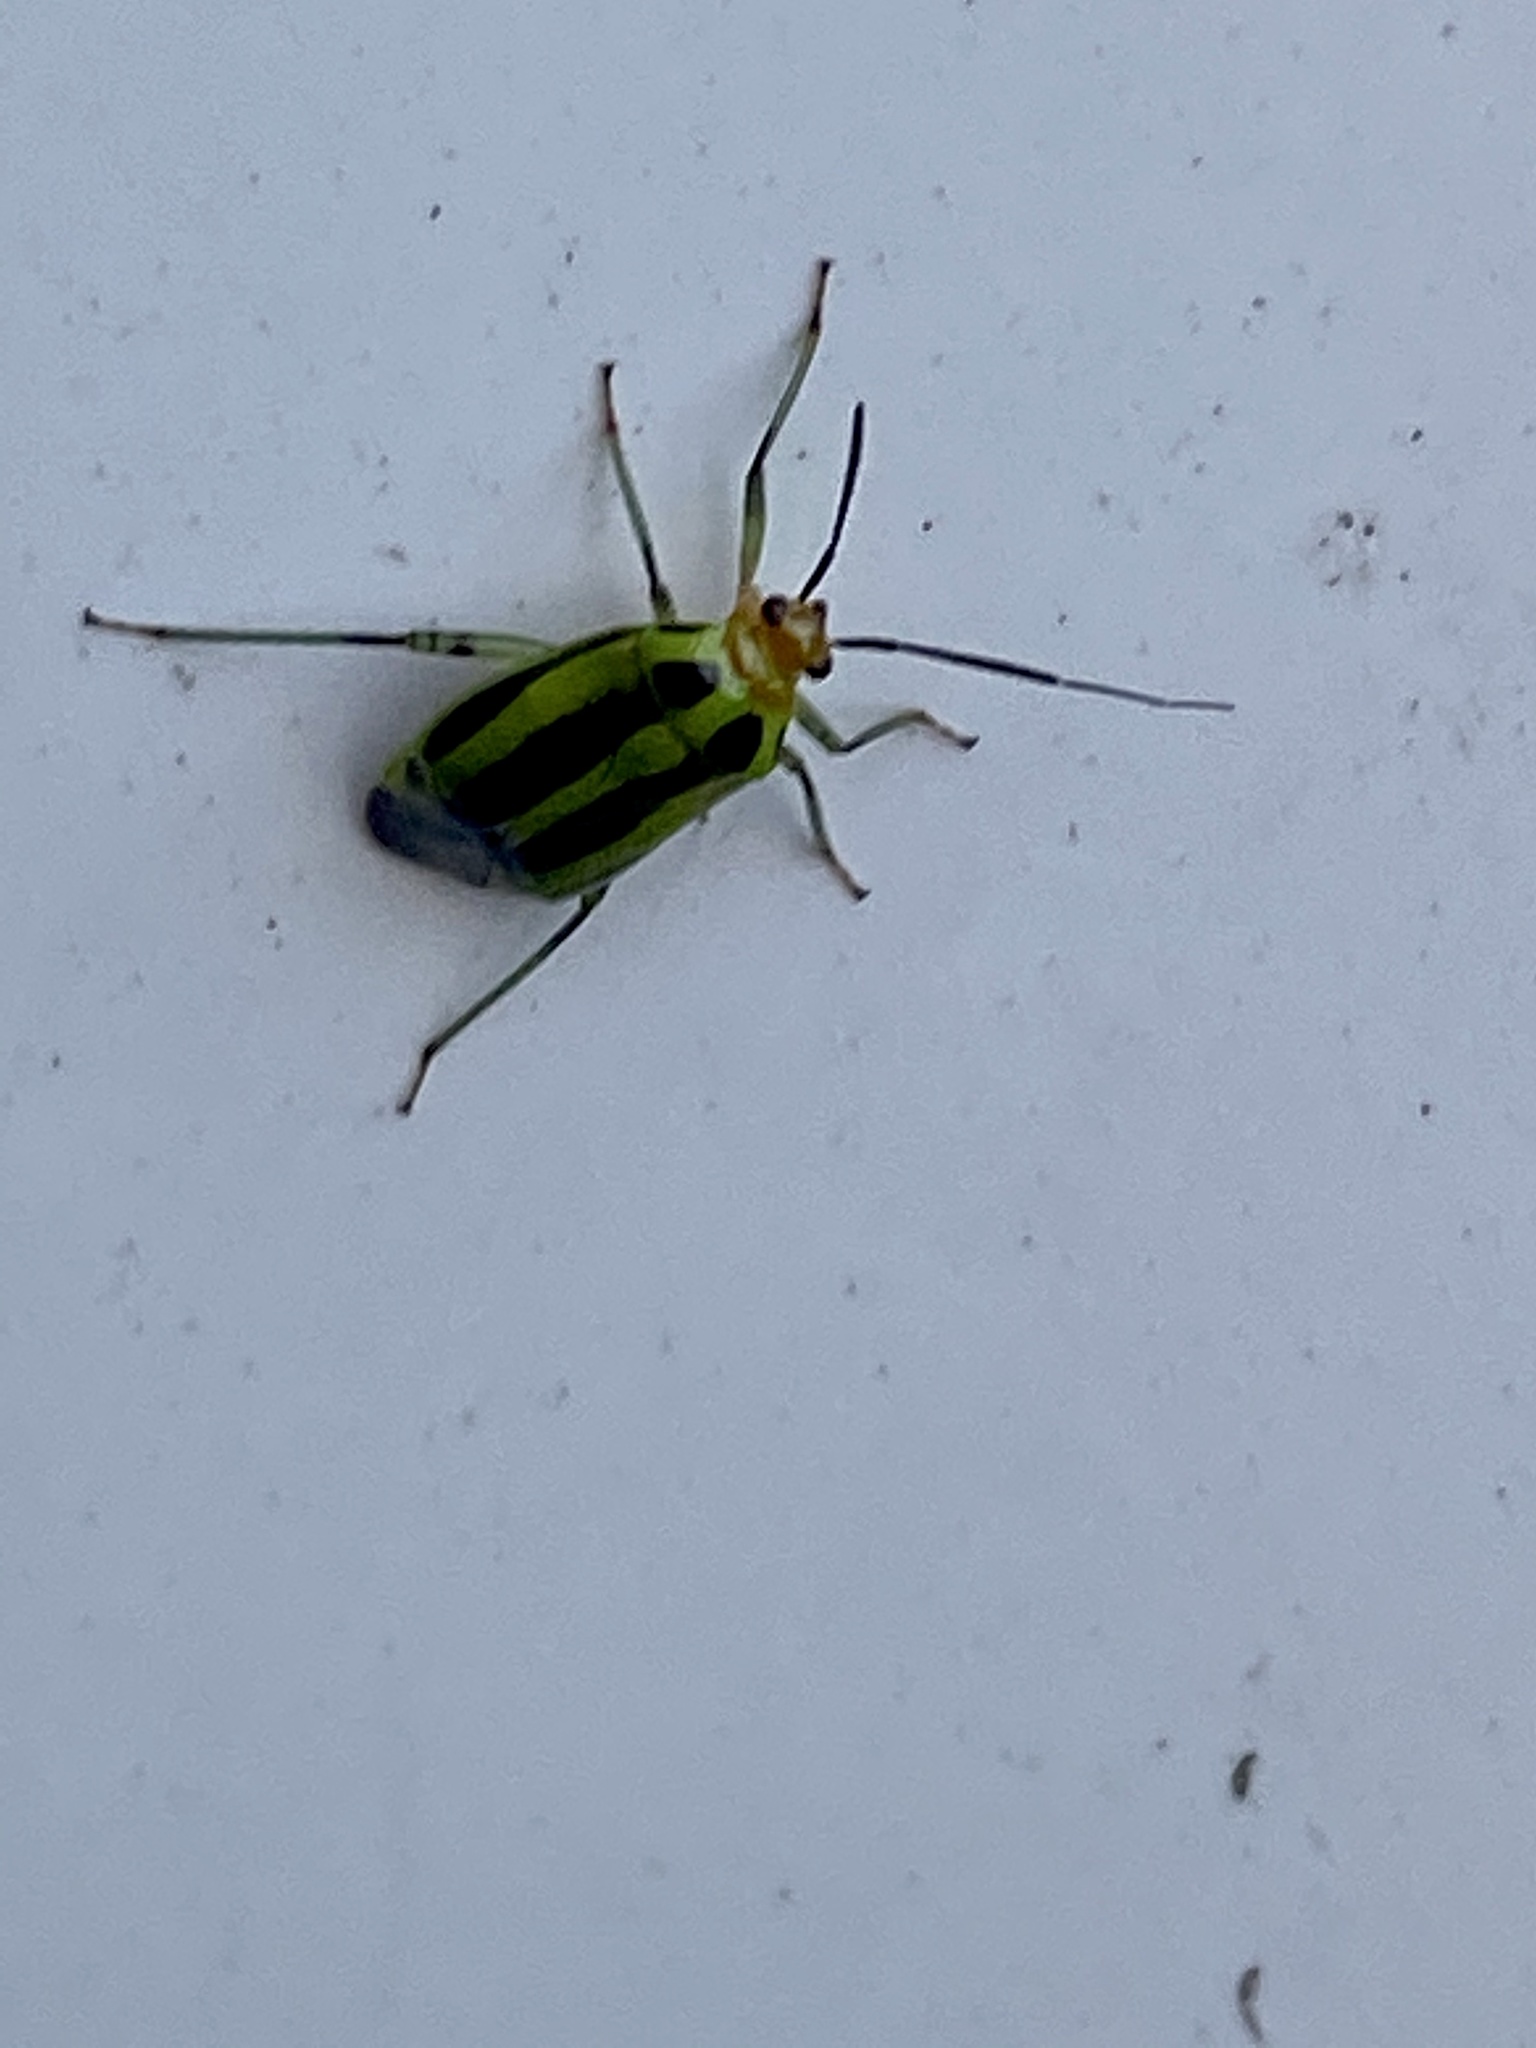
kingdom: Animalia
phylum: Arthropoda
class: Insecta
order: Hemiptera
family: Miridae
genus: Poecilocapsus
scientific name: Poecilocapsus lineatus
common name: Four-lined plant bug
